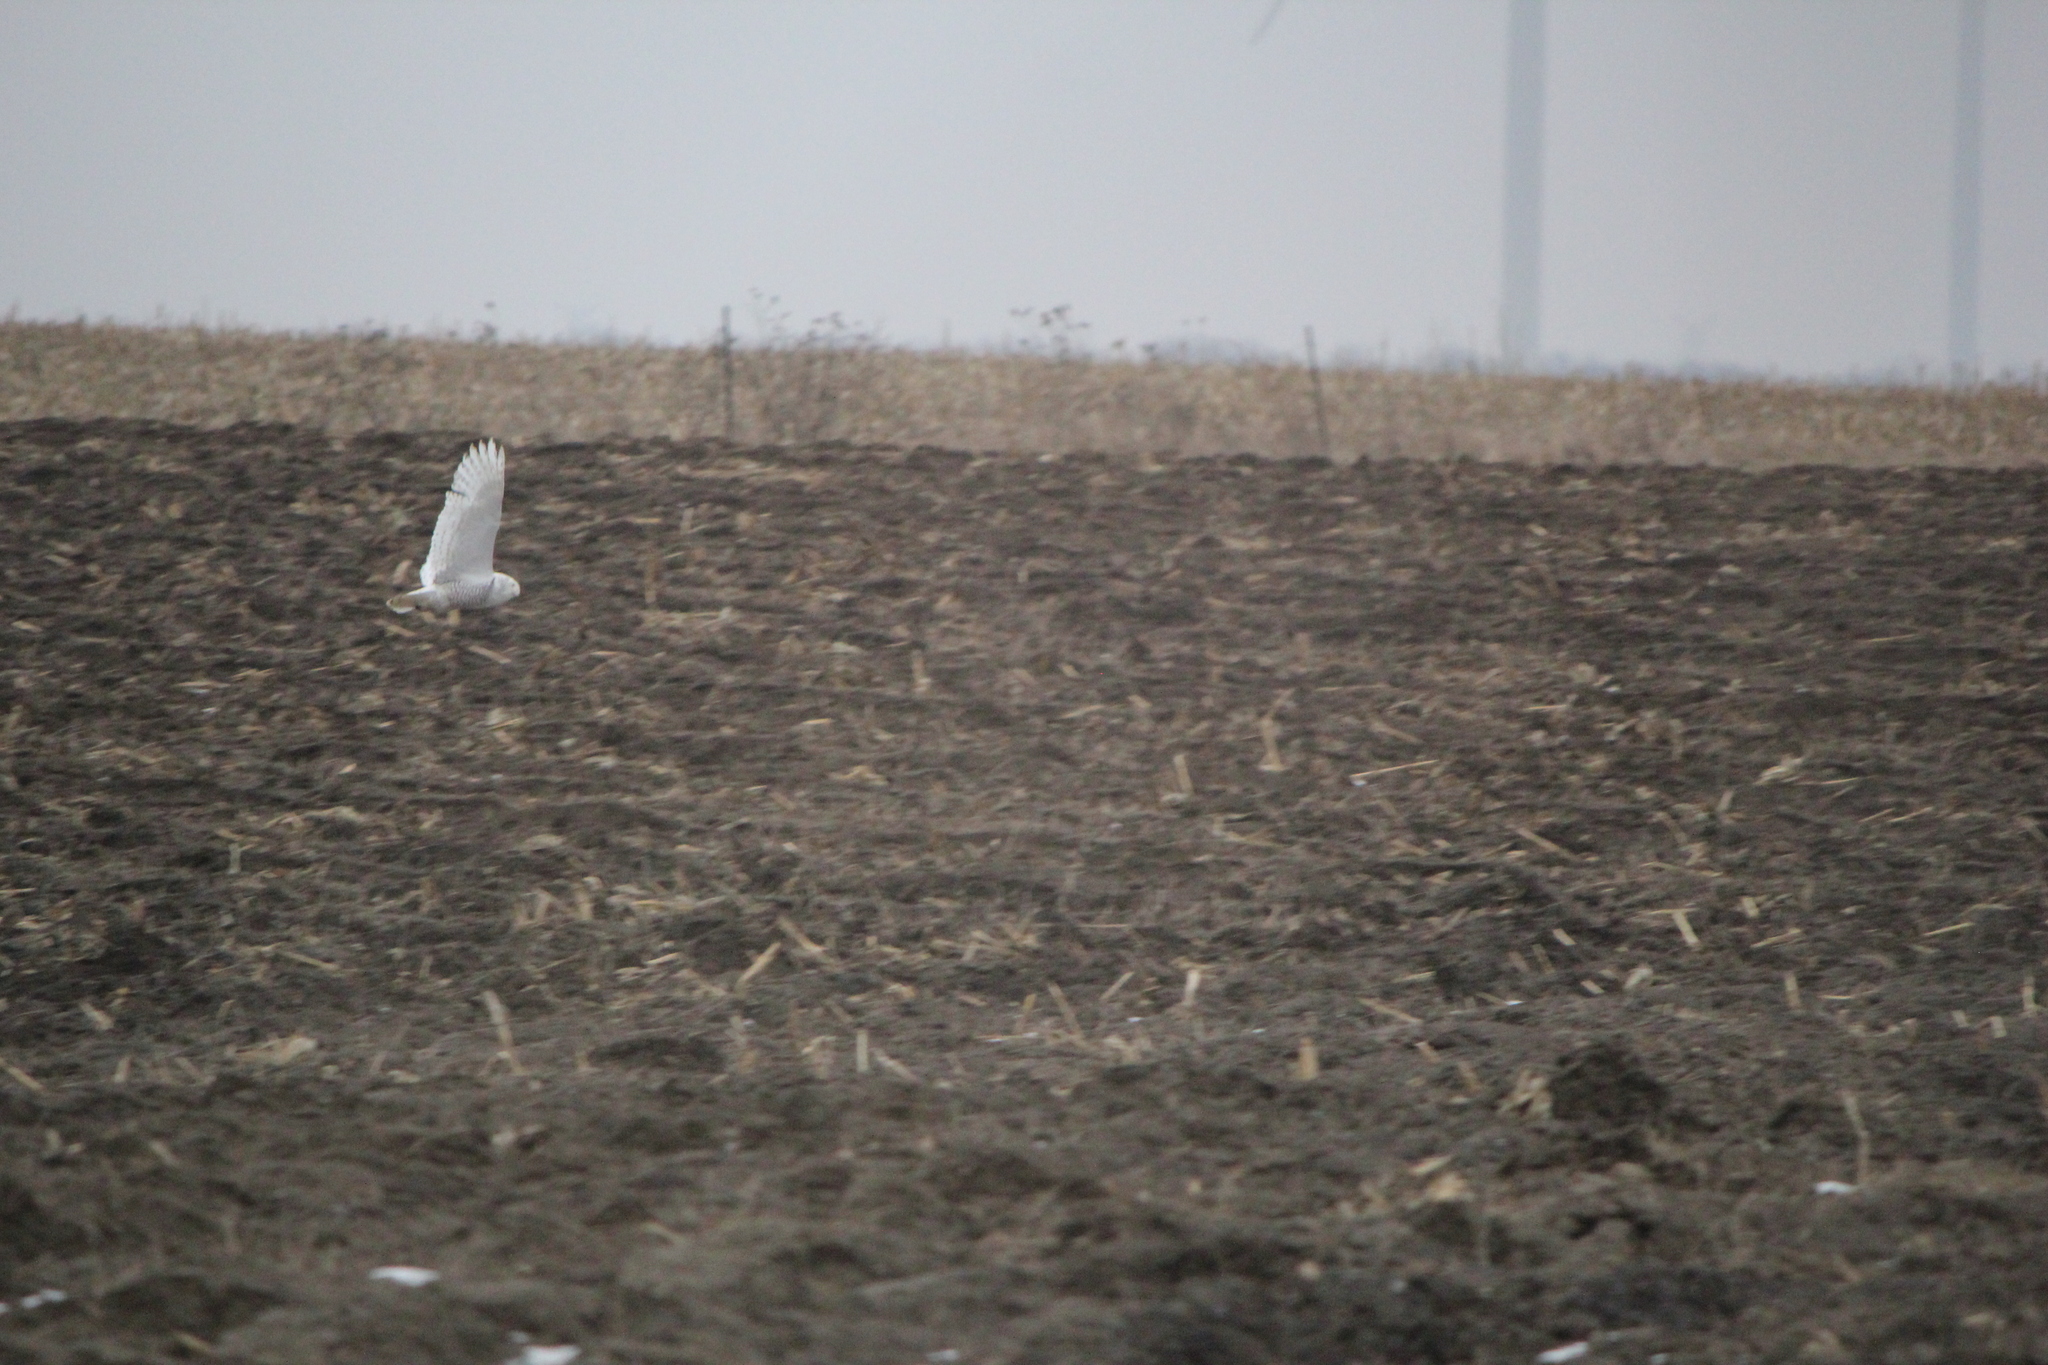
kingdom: Animalia
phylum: Chordata
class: Aves
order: Strigiformes
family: Strigidae
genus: Bubo
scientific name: Bubo scandiacus
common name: Snowy owl
